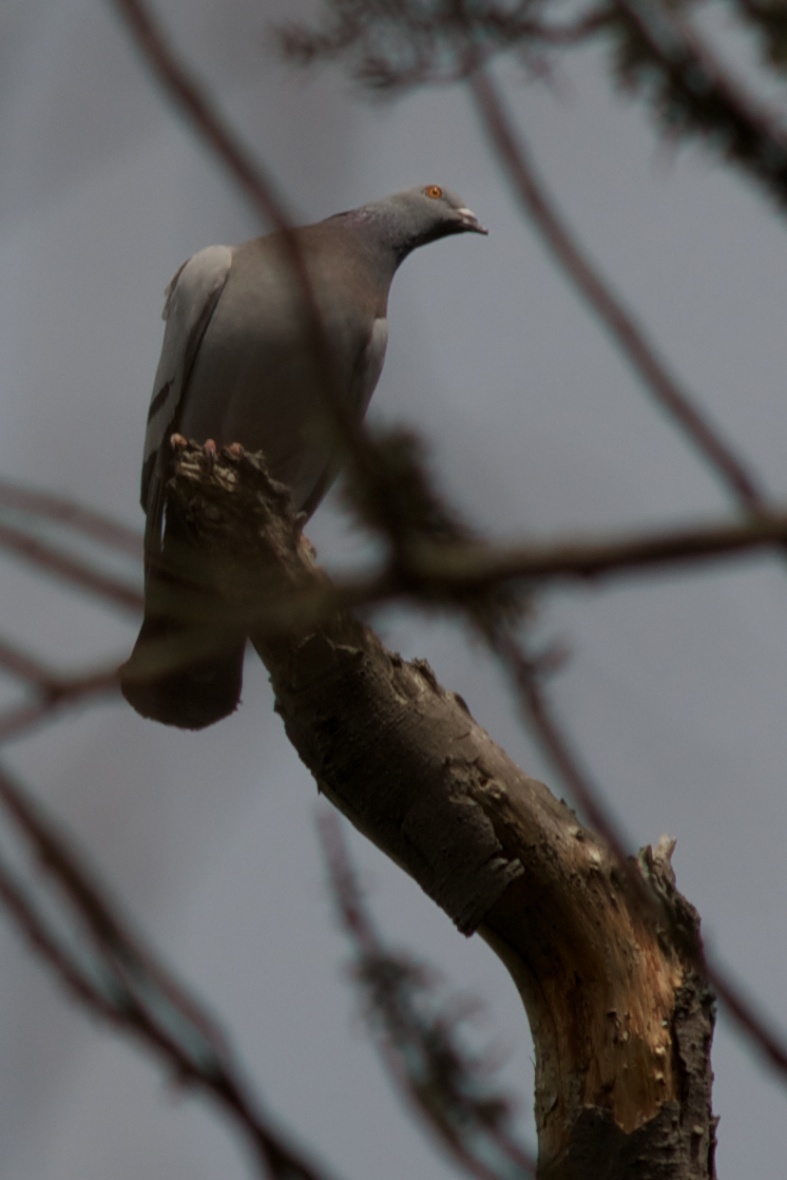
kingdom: Animalia
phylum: Chordata
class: Aves
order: Columbiformes
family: Columbidae
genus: Columba
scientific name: Columba livia
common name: Rock pigeon
